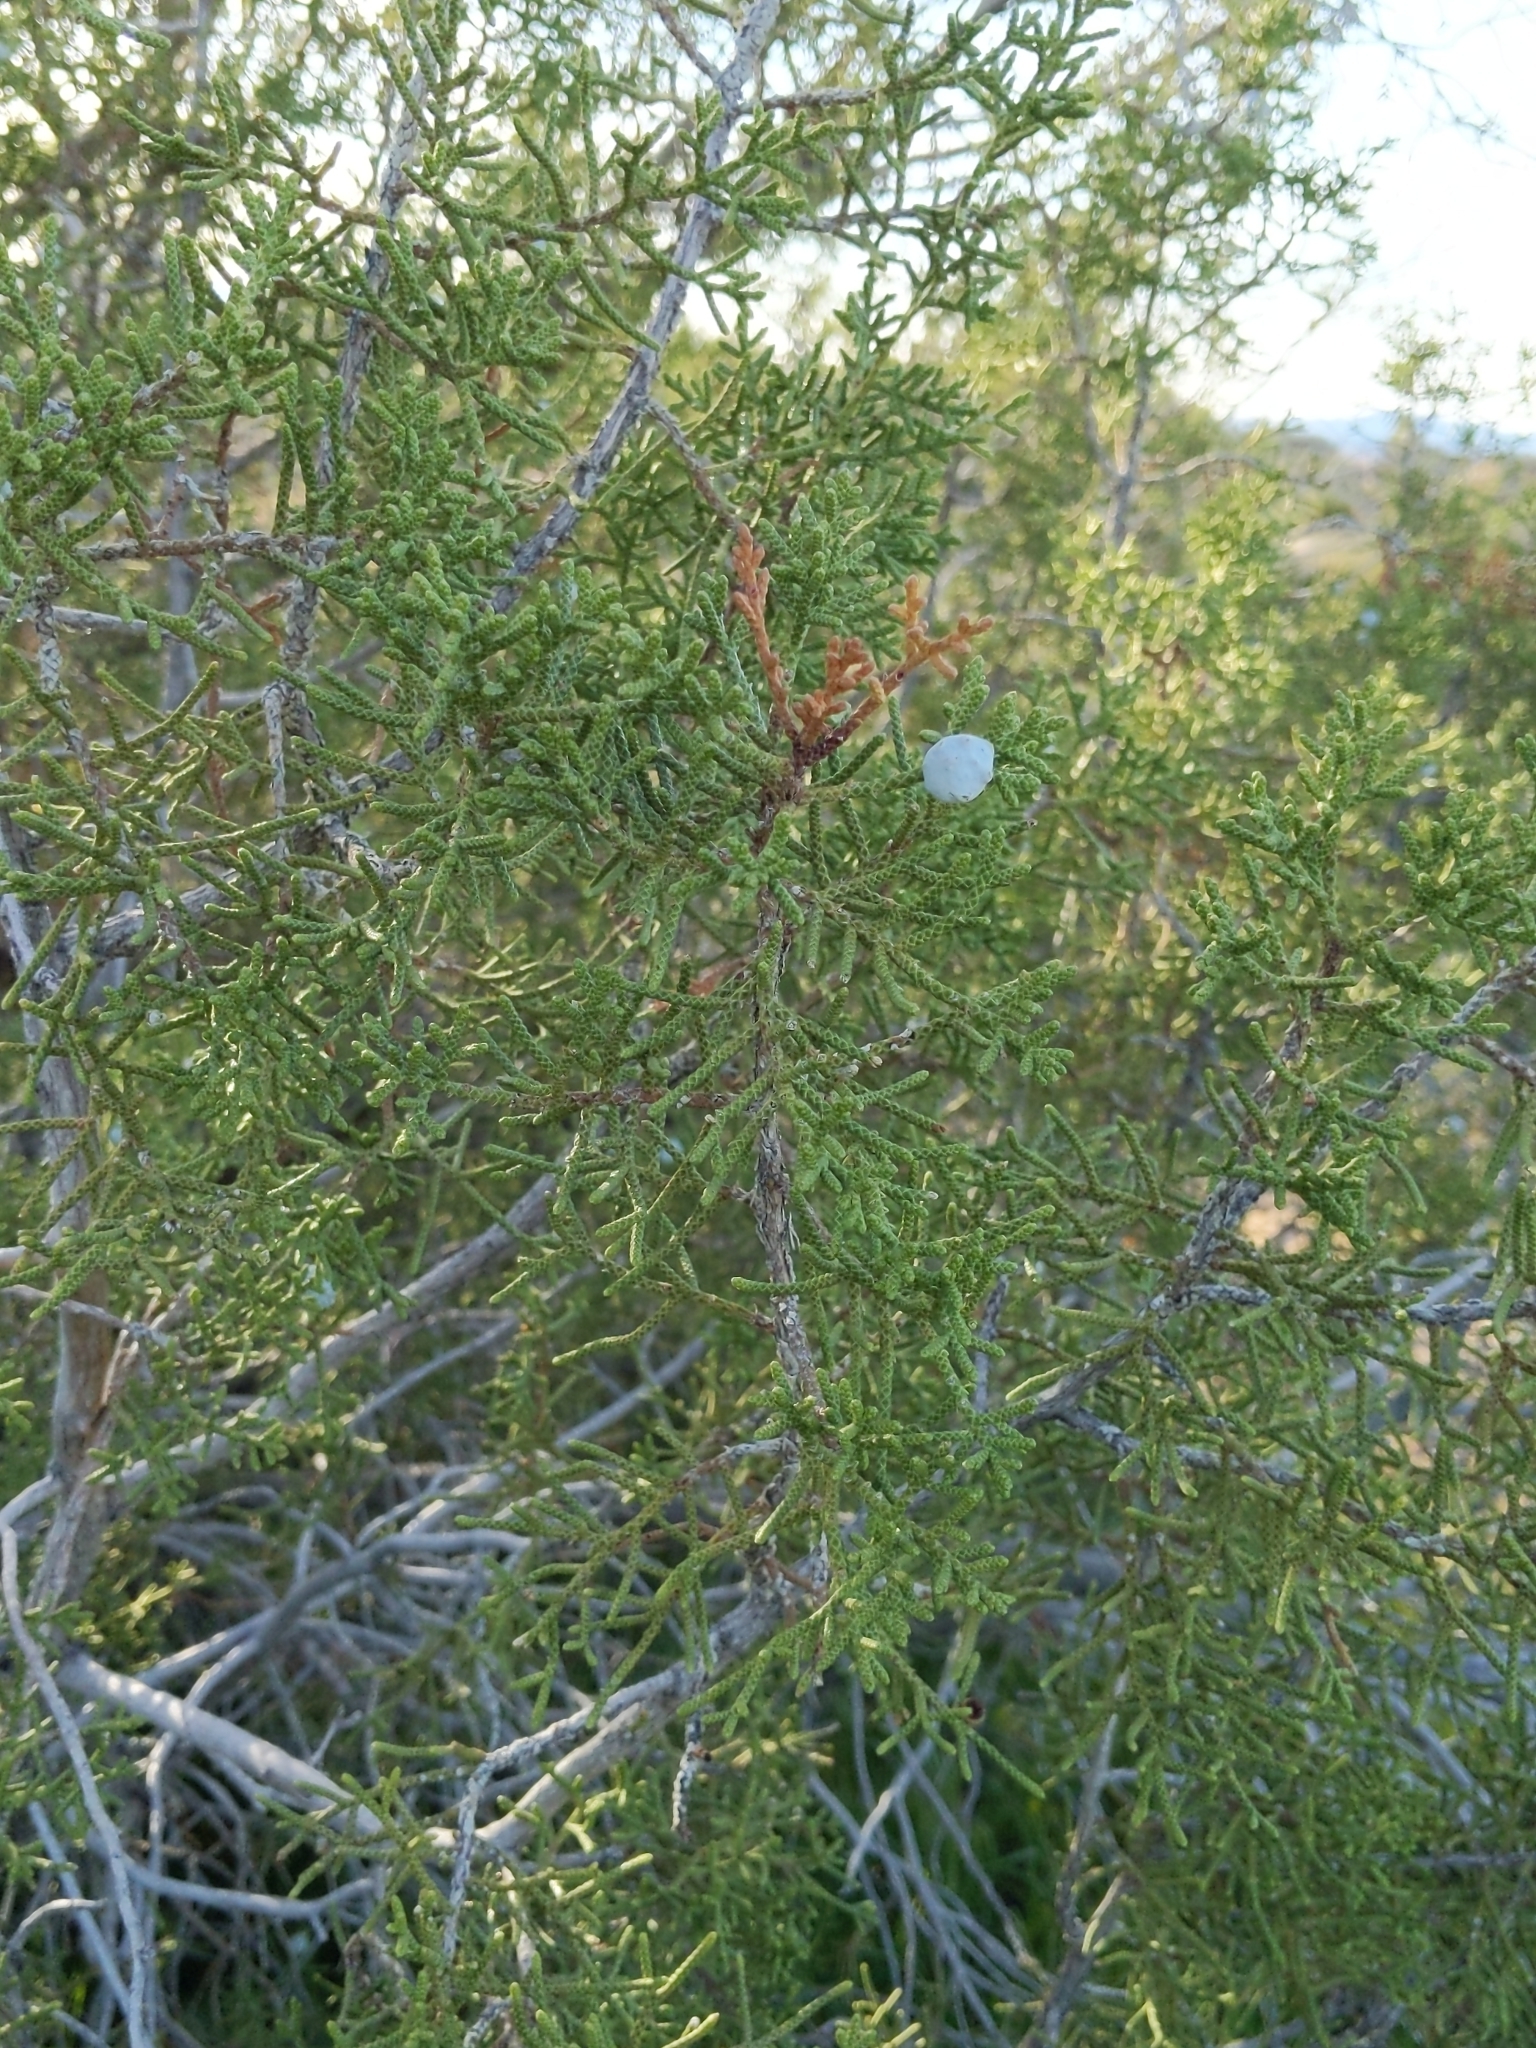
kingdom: Plantae
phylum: Tracheophyta
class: Pinopsida
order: Pinales
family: Cupressaceae
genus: Juniperus
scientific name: Juniperus californica
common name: California juniper
